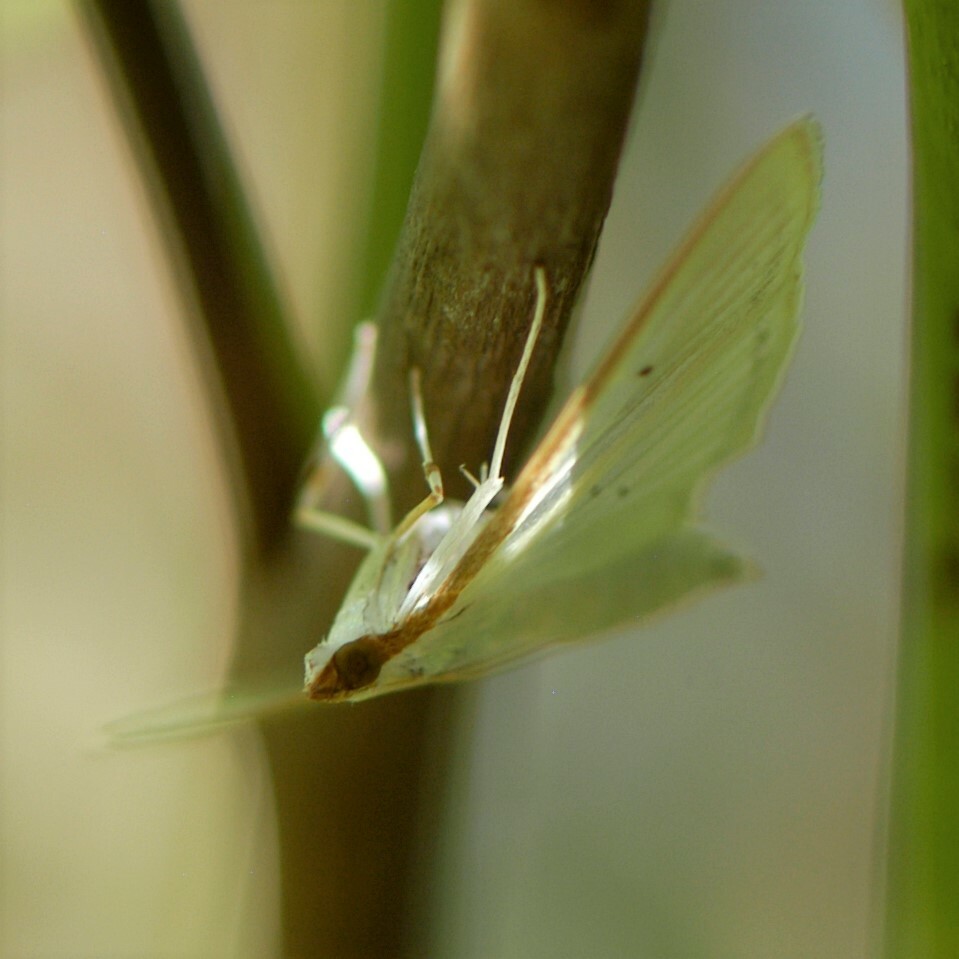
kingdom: Animalia
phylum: Arthropoda
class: Insecta
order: Lepidoptera
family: Crambidae
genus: Palpita
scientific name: Palpita quadristigmalis
